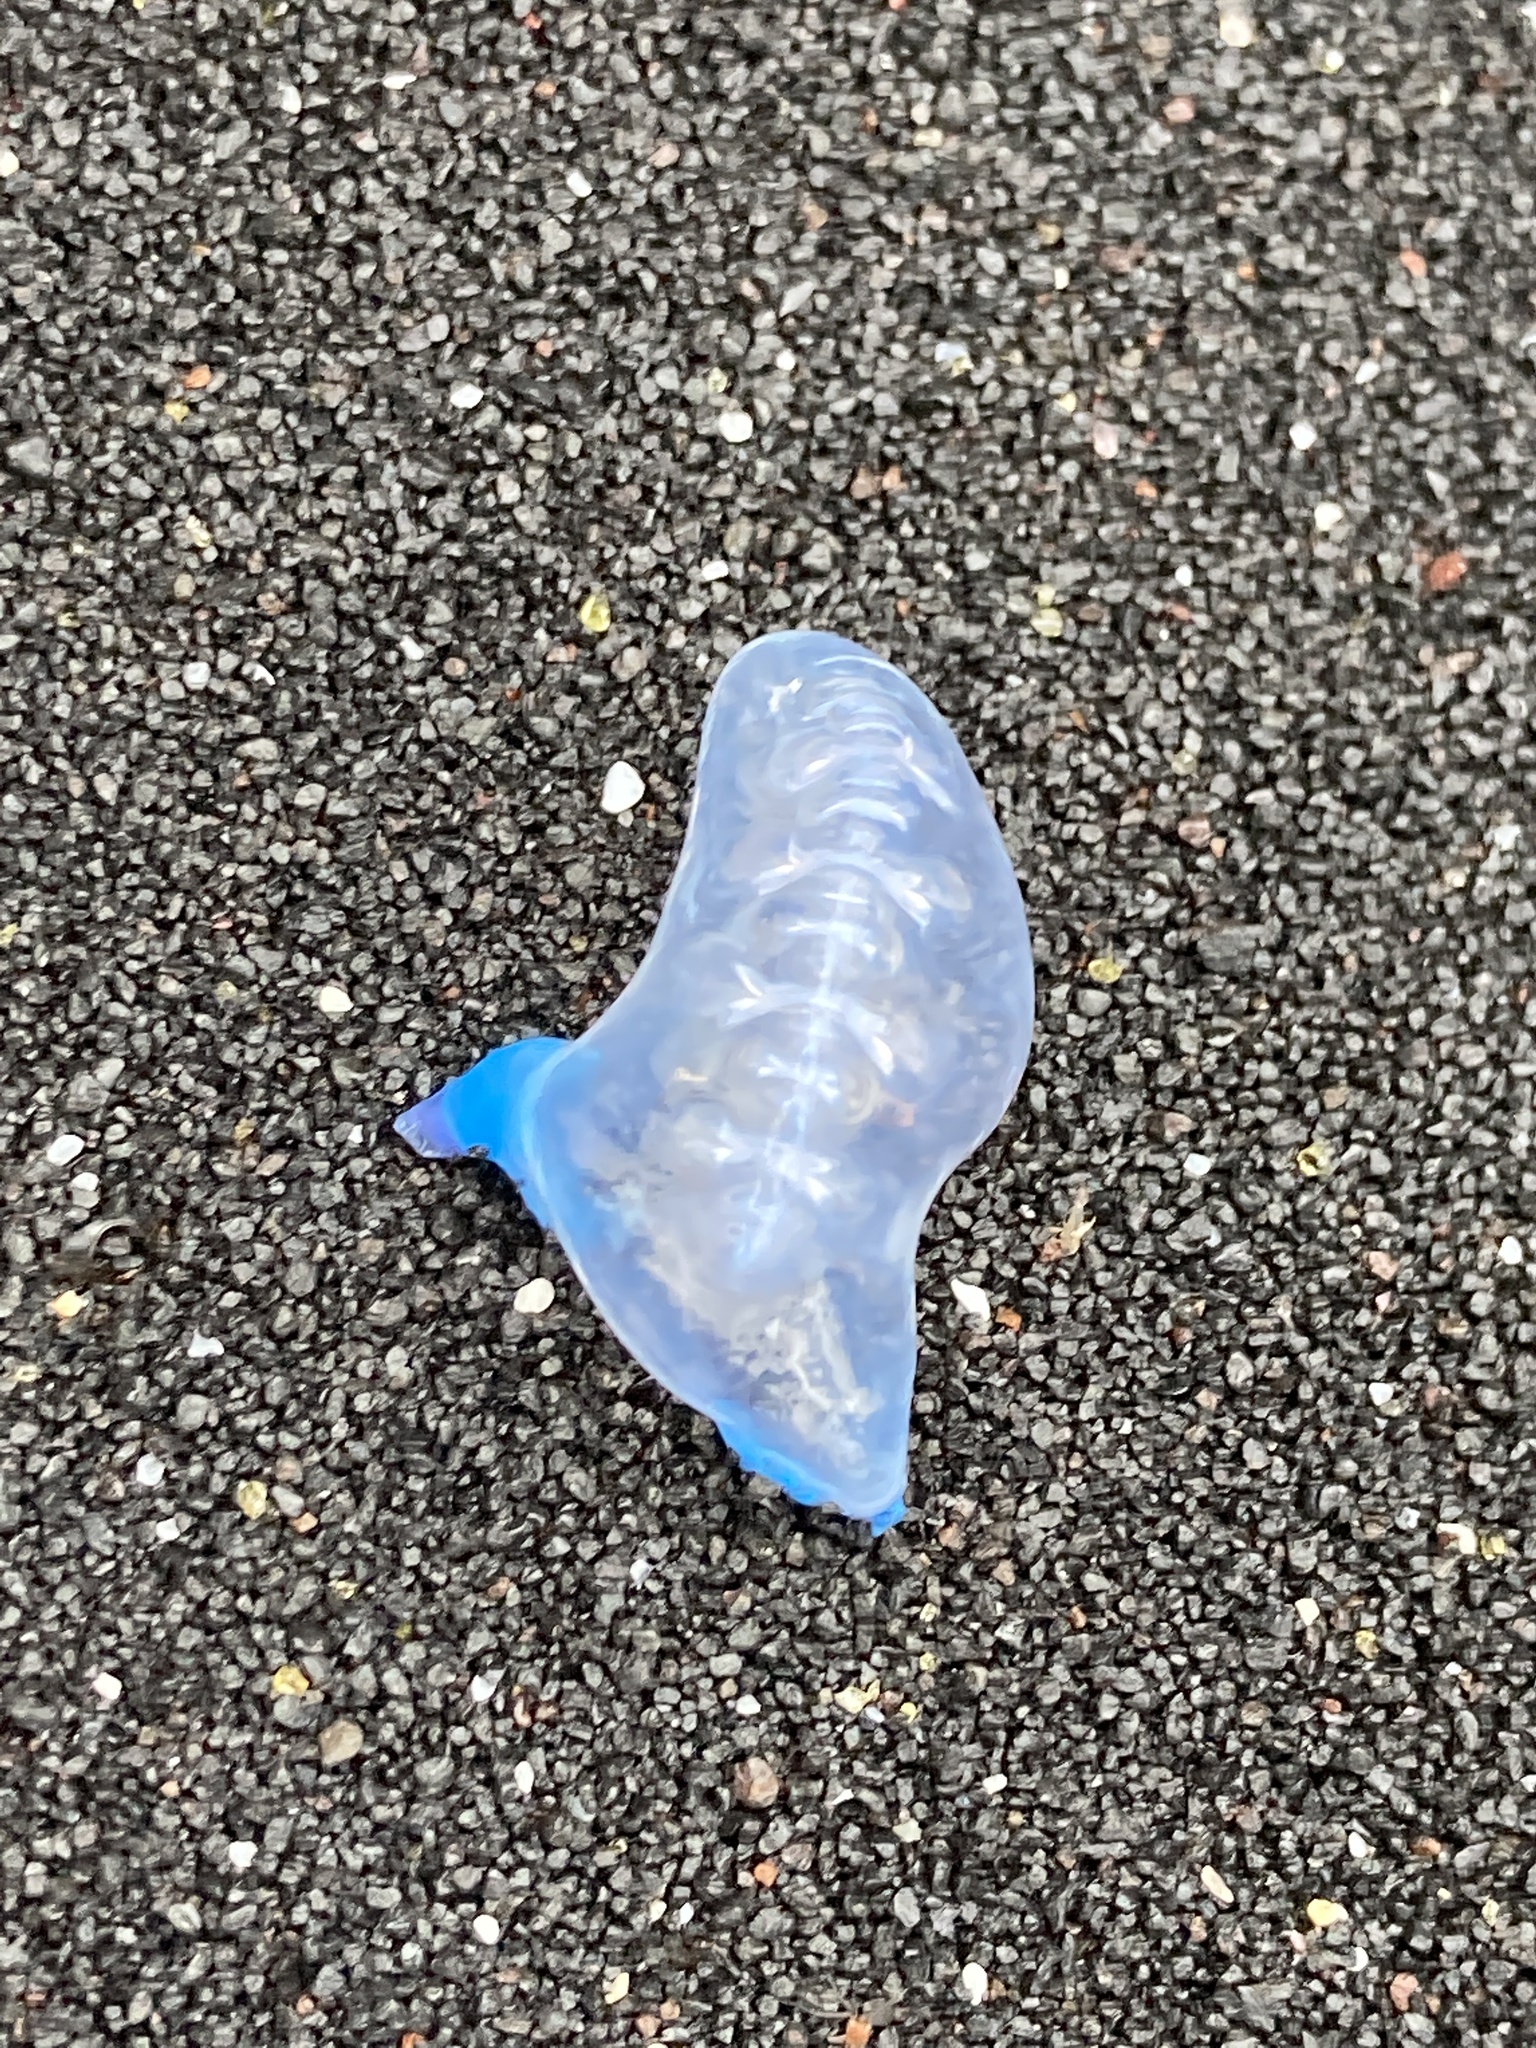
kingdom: Animalia
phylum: Cnidaria
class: Hydrozoa
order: Siphonophorae
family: Physaliidae
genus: Physalia
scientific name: Physalia physalis
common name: Portuguese man-of-war
